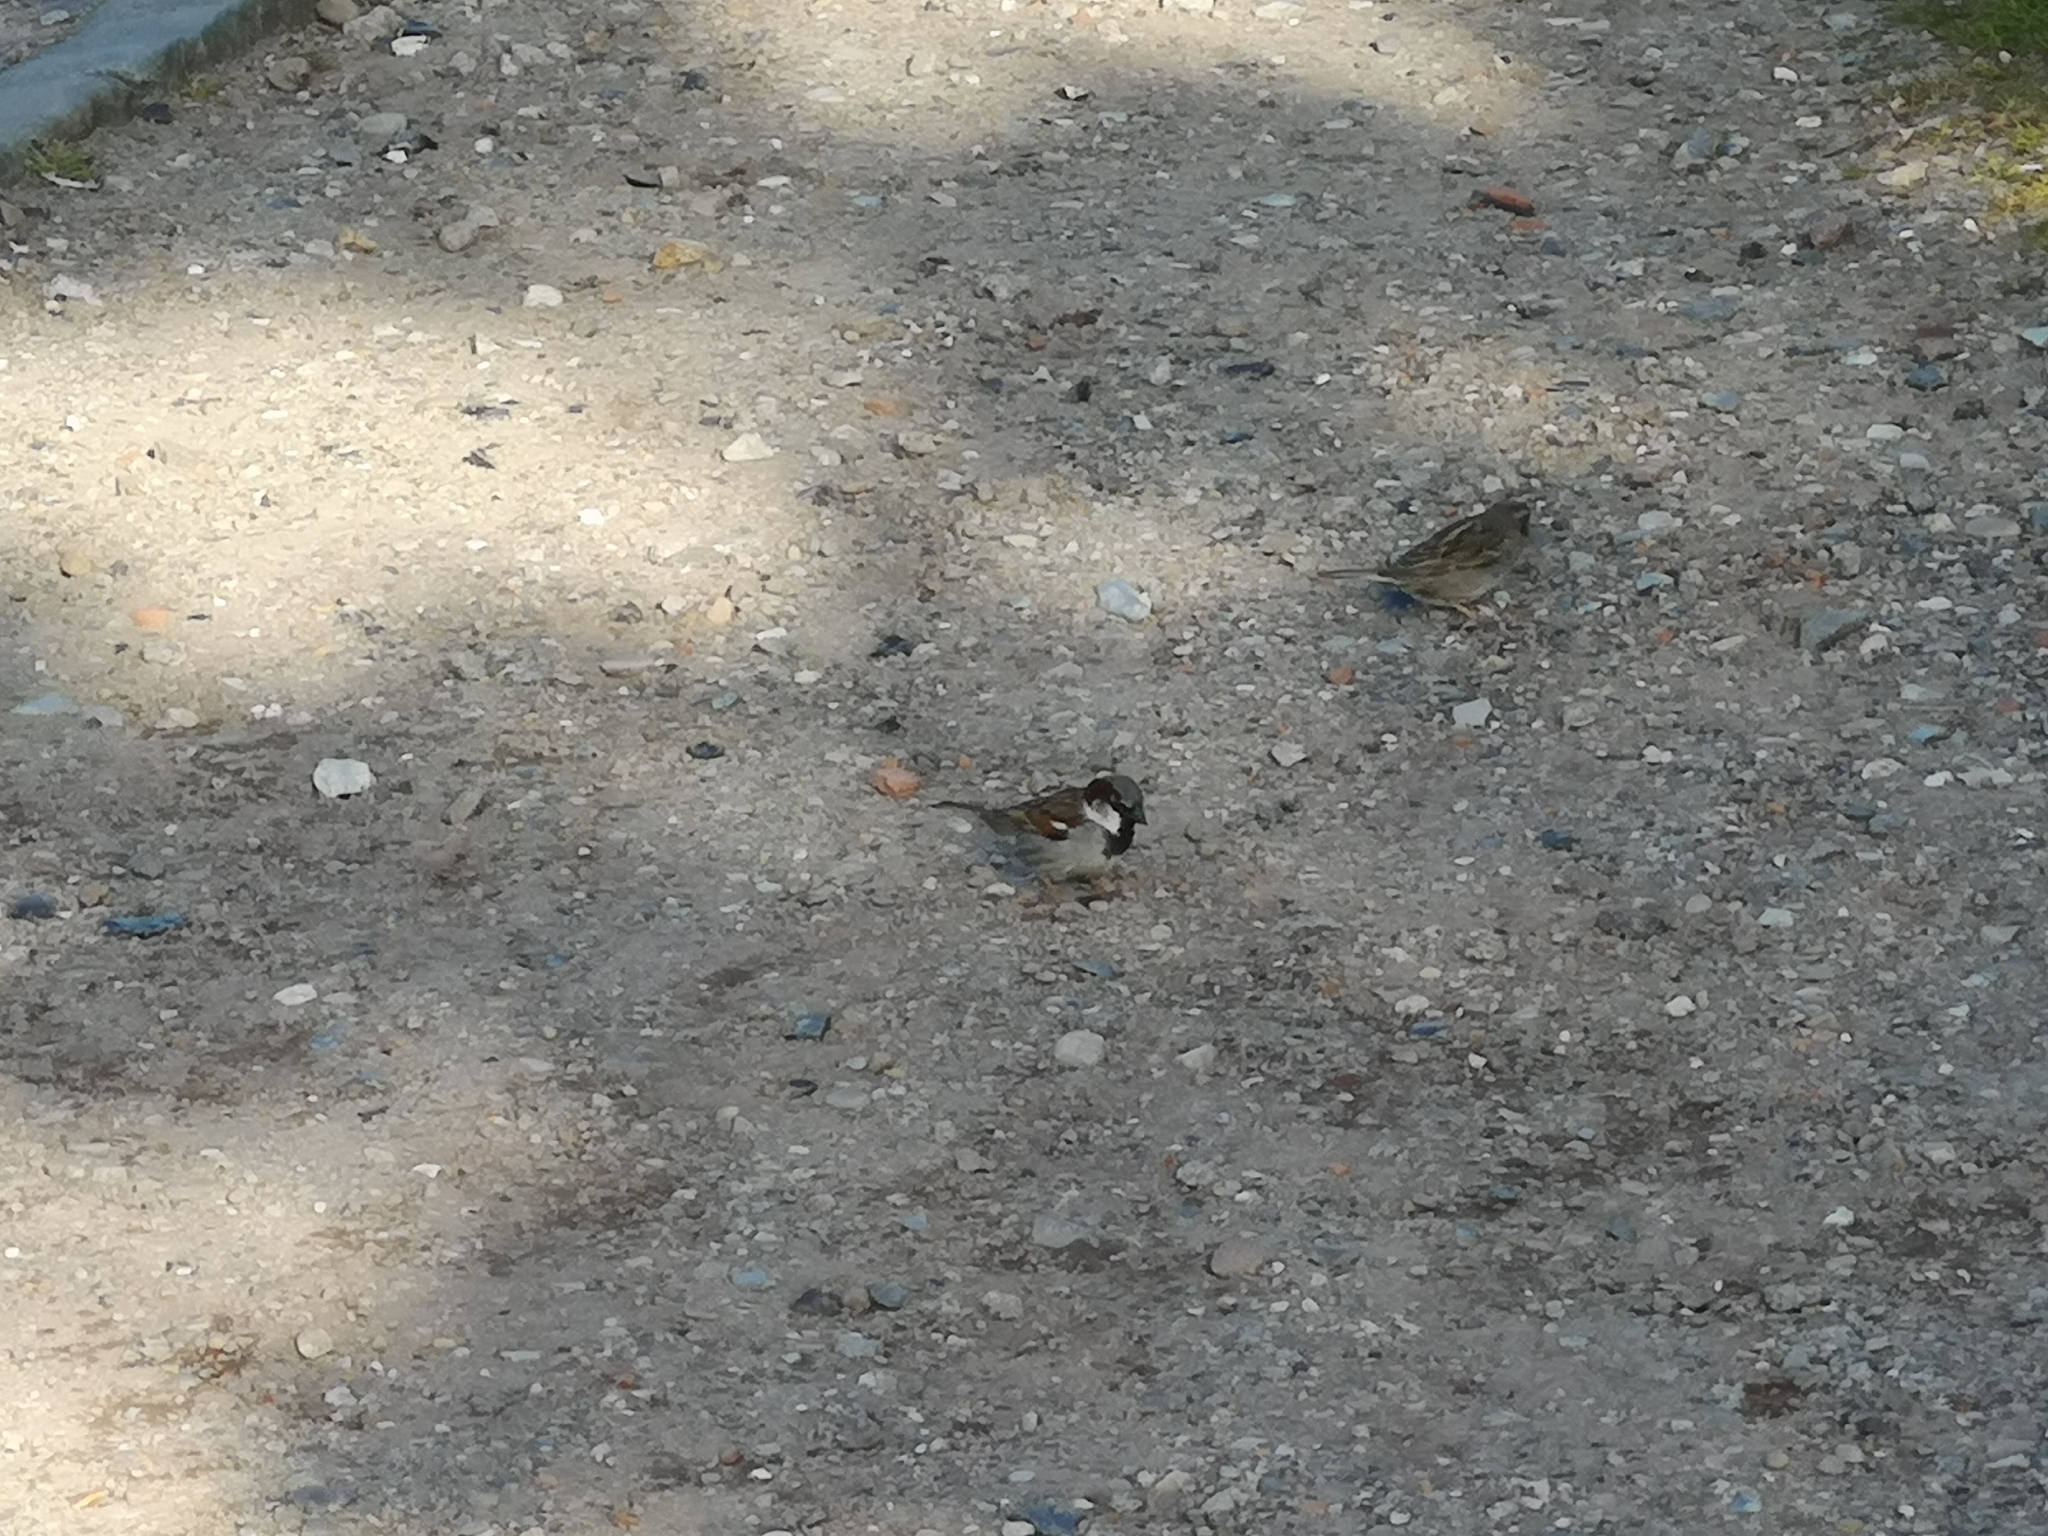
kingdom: Animalia
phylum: Chordata
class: Aves
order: Passeriformes
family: Passeridae
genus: Passer
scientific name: Passer domesticus
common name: House sparrow
